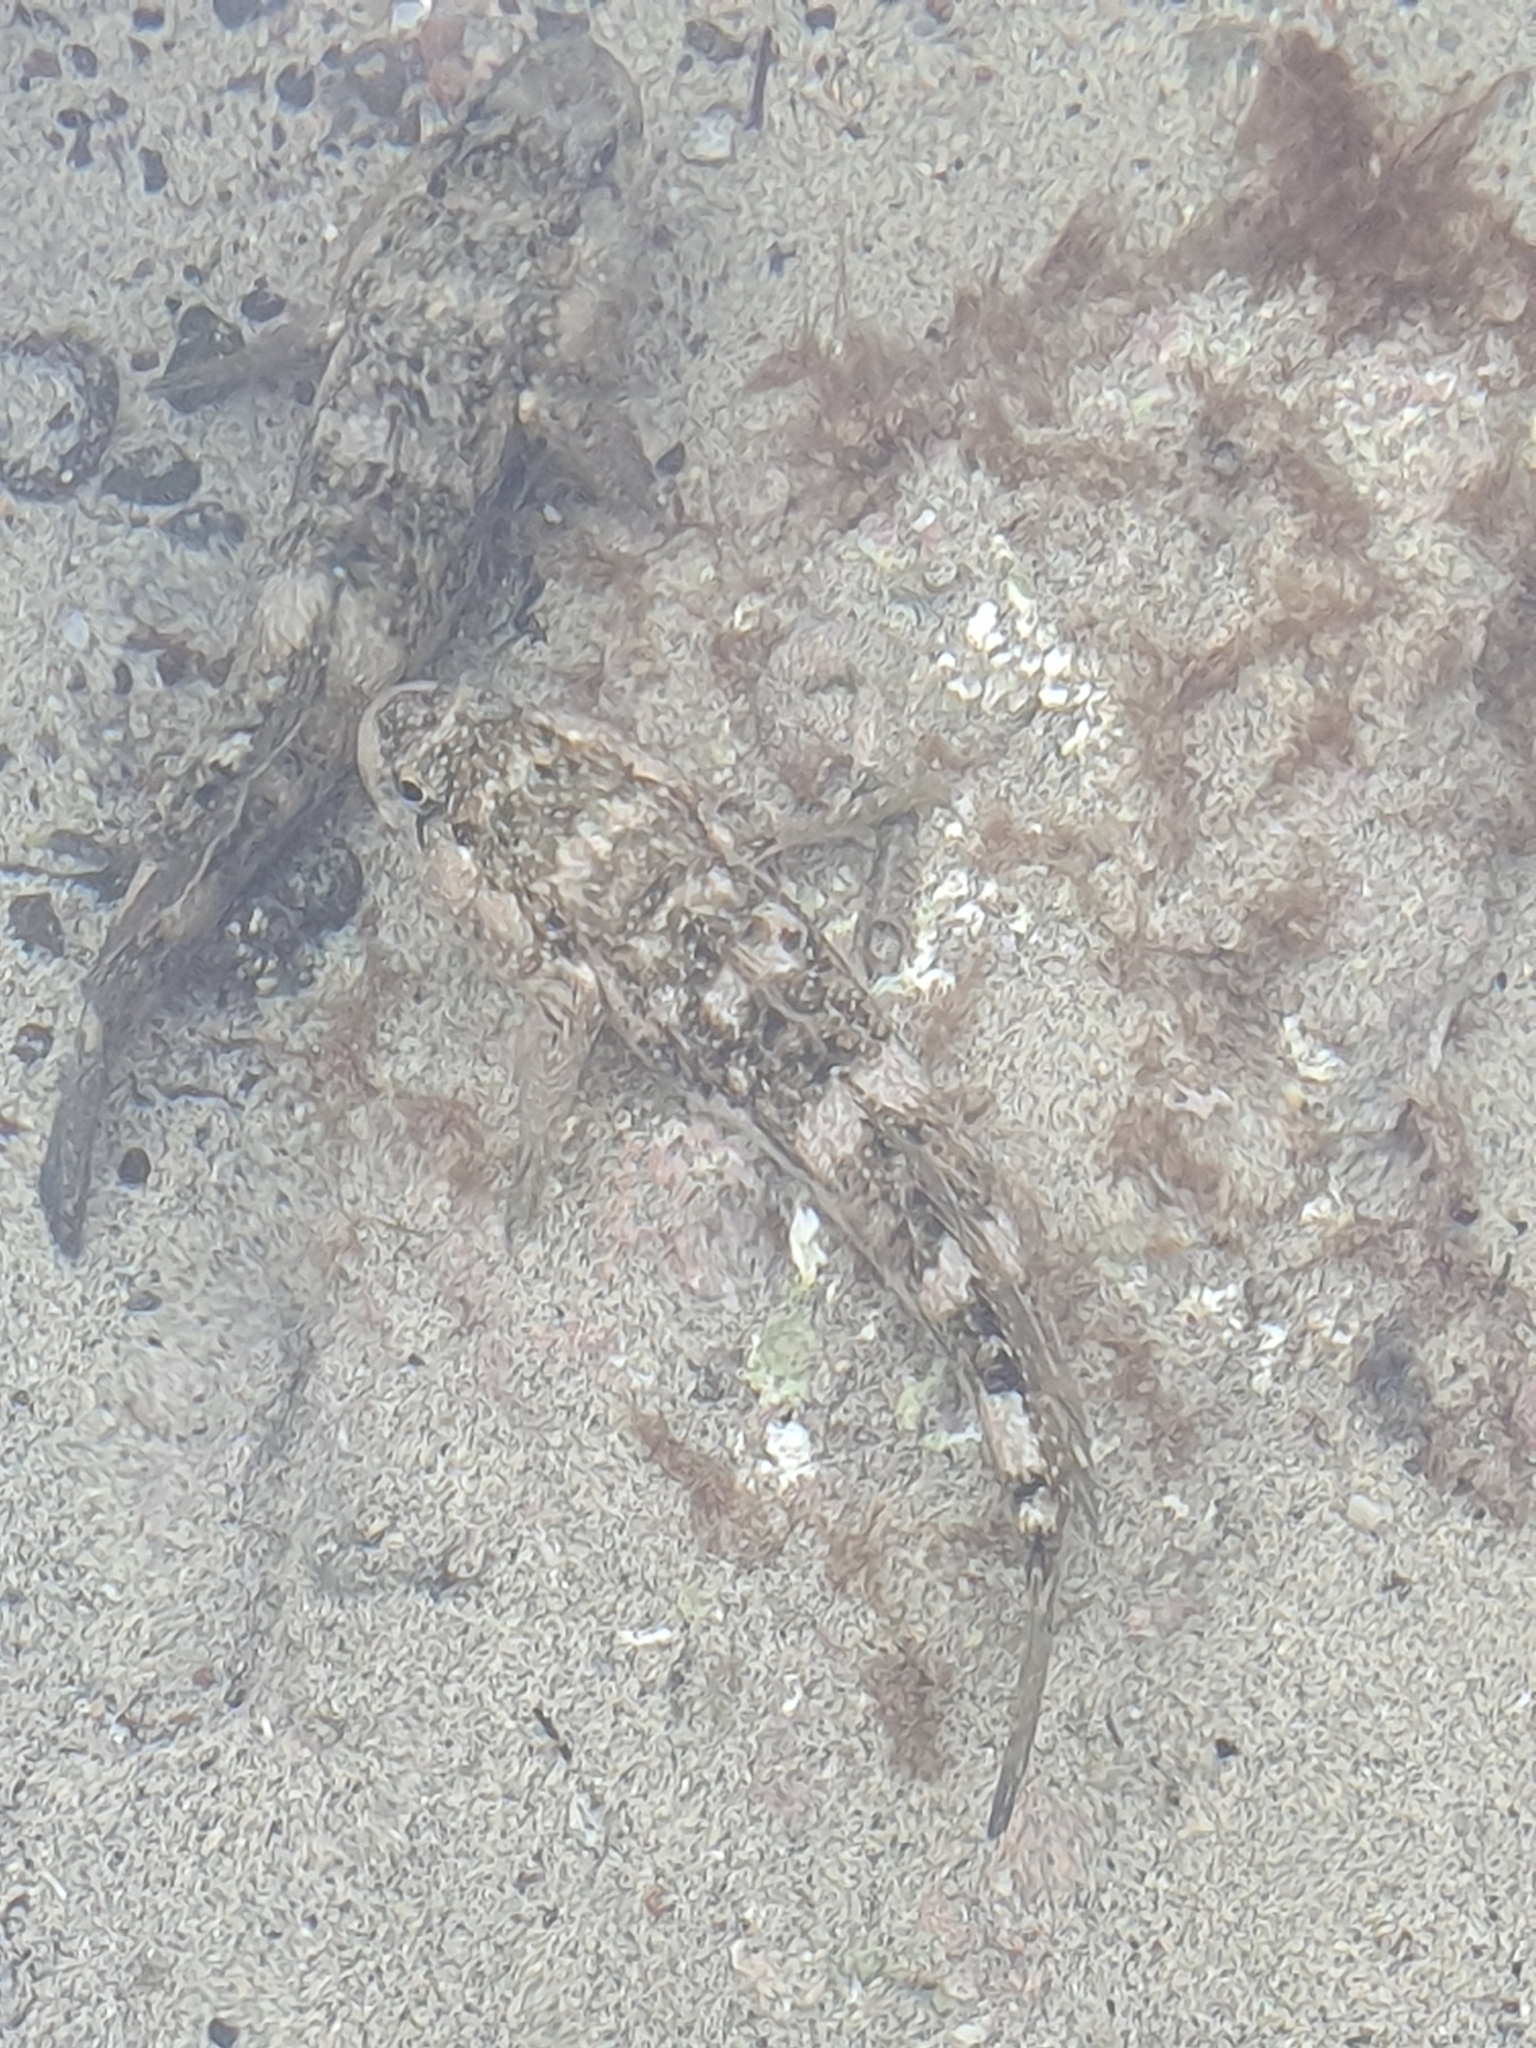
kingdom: Animalia
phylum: Chordata
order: Perciformes
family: Gobiidae
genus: Mauligobius
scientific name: Mauligobius maderensis
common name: Rock goby
